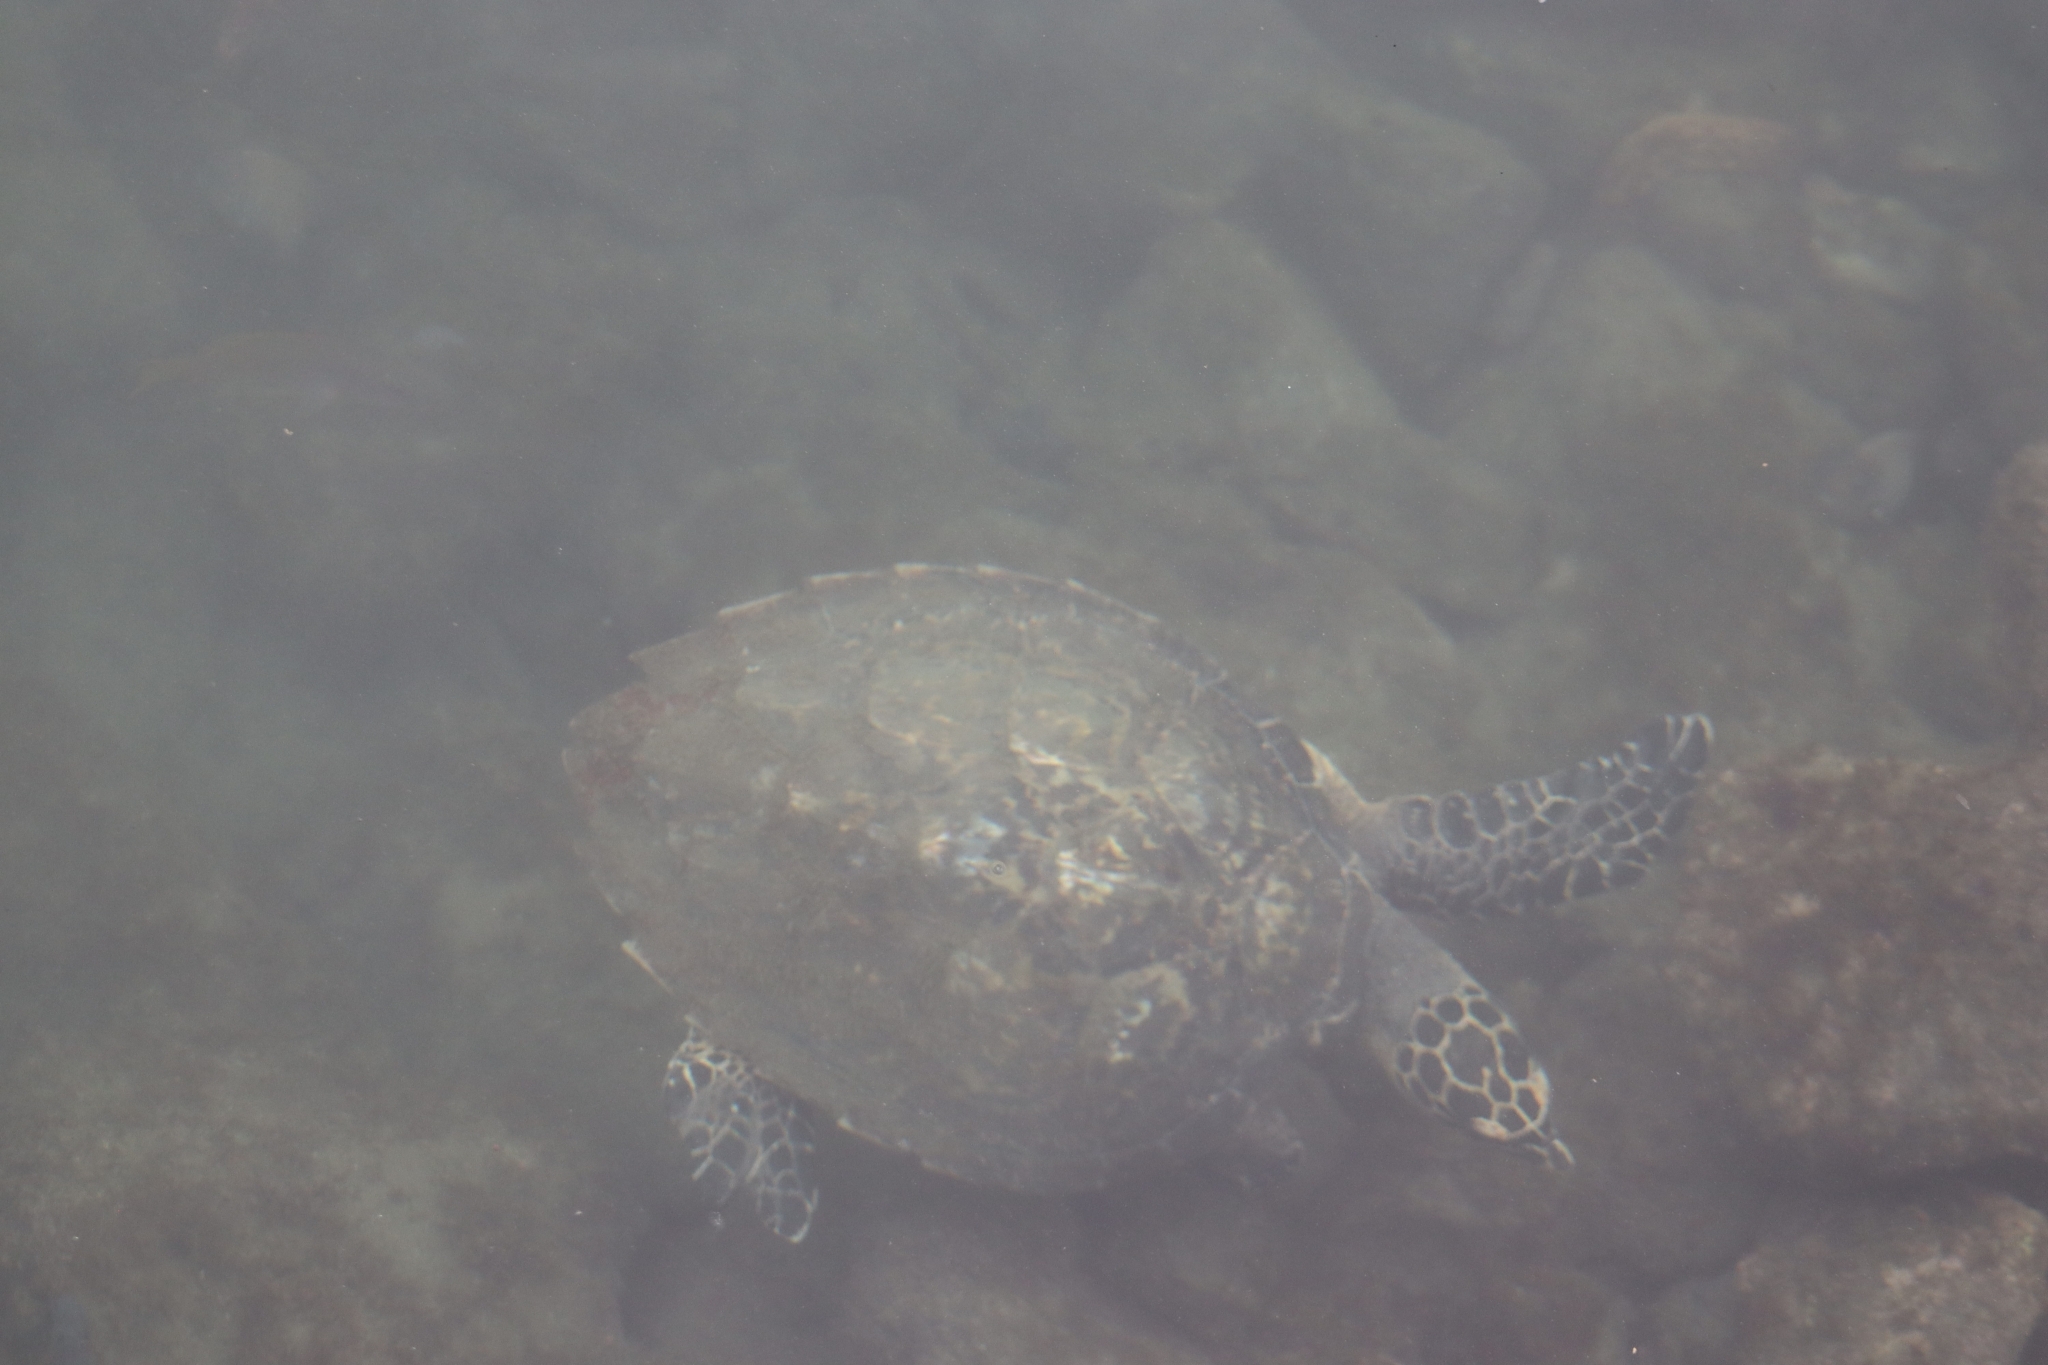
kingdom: Animalia
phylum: Chordata
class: Testudines
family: Cheloniidae
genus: Eretmochelys
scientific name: Eretmochelys imbricata
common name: Hawksbill turtle
